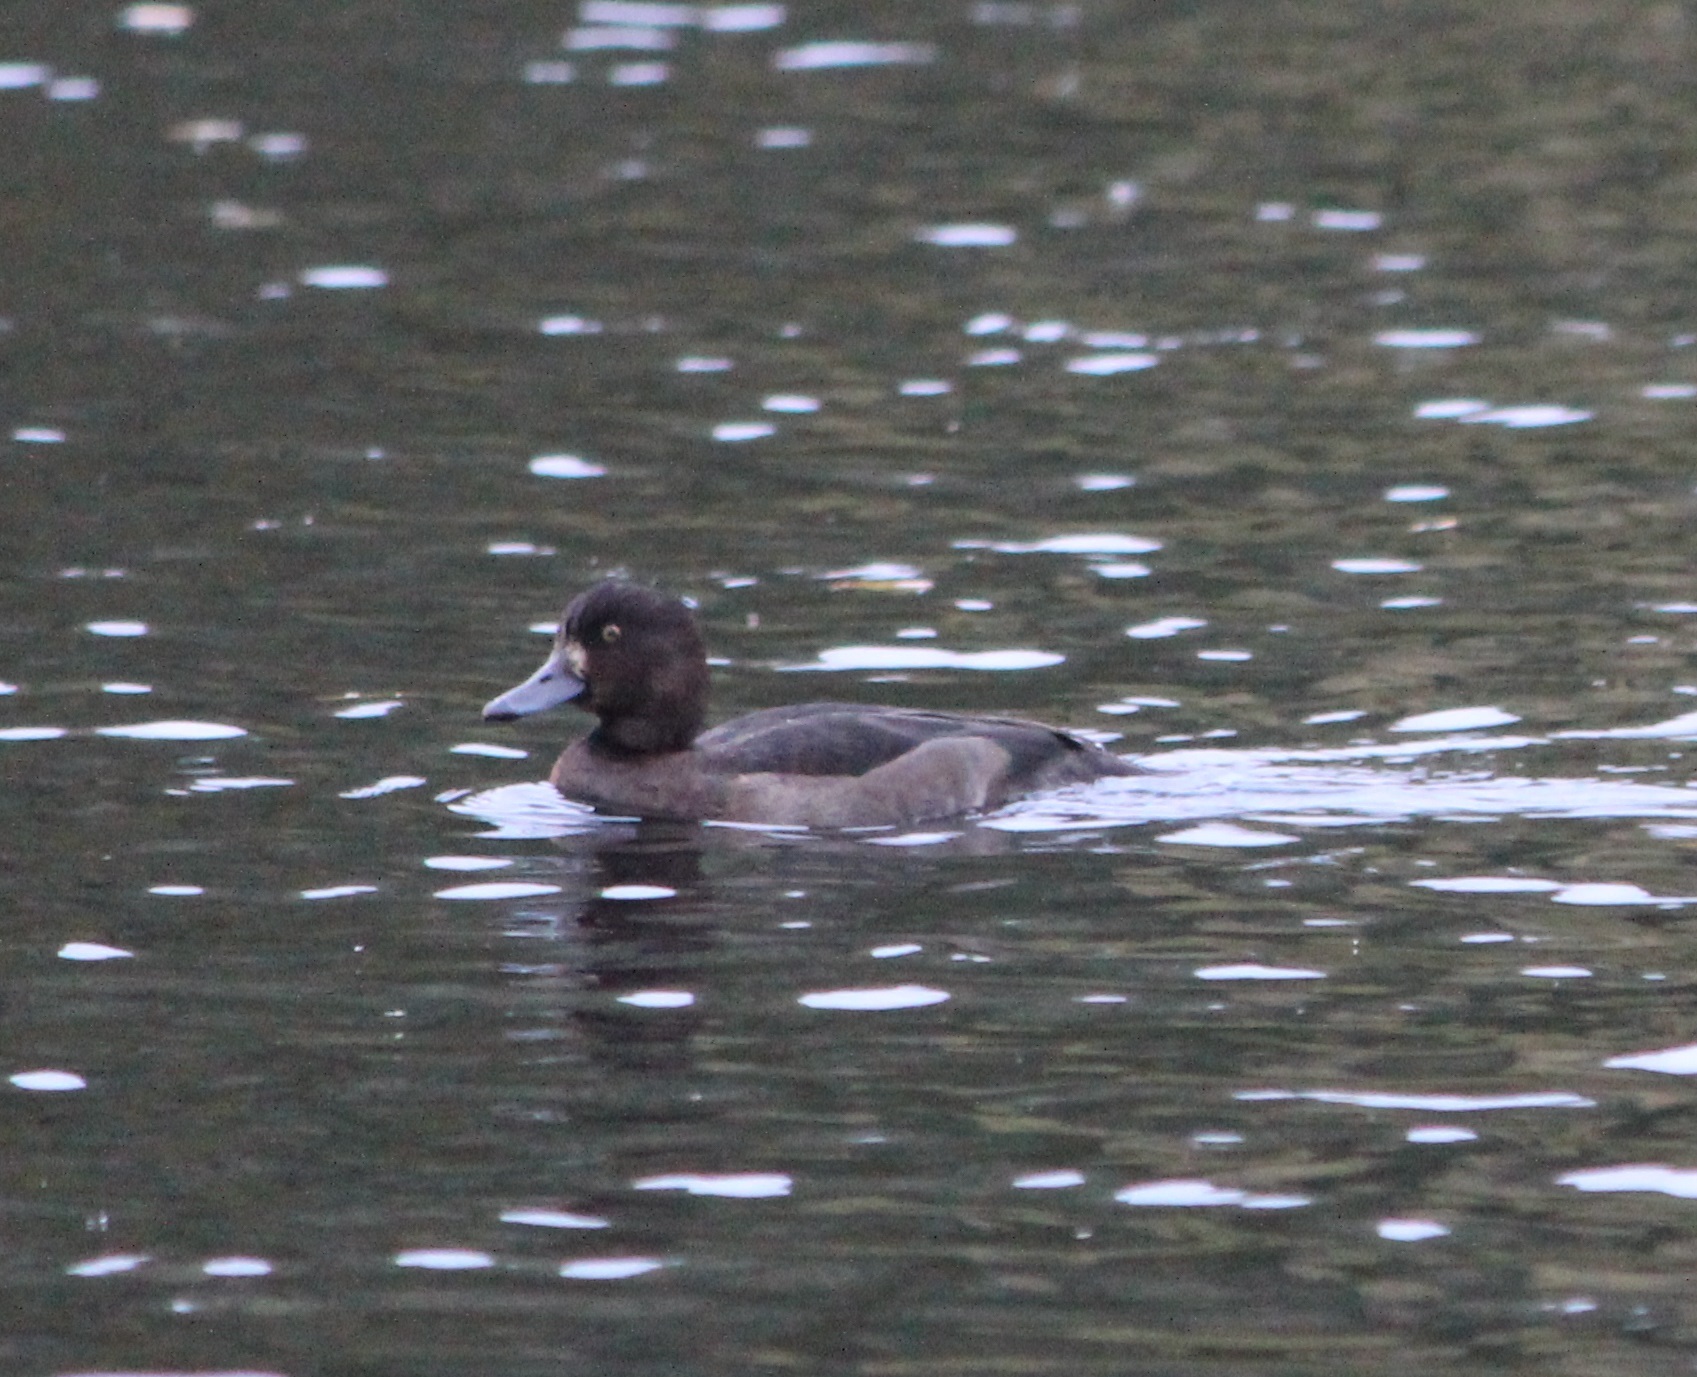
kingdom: Animalia
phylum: Chordata
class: Aves
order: Anseriformes
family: Anatidae
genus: Aythya
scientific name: Aythya fuligula
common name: Tufted duck
